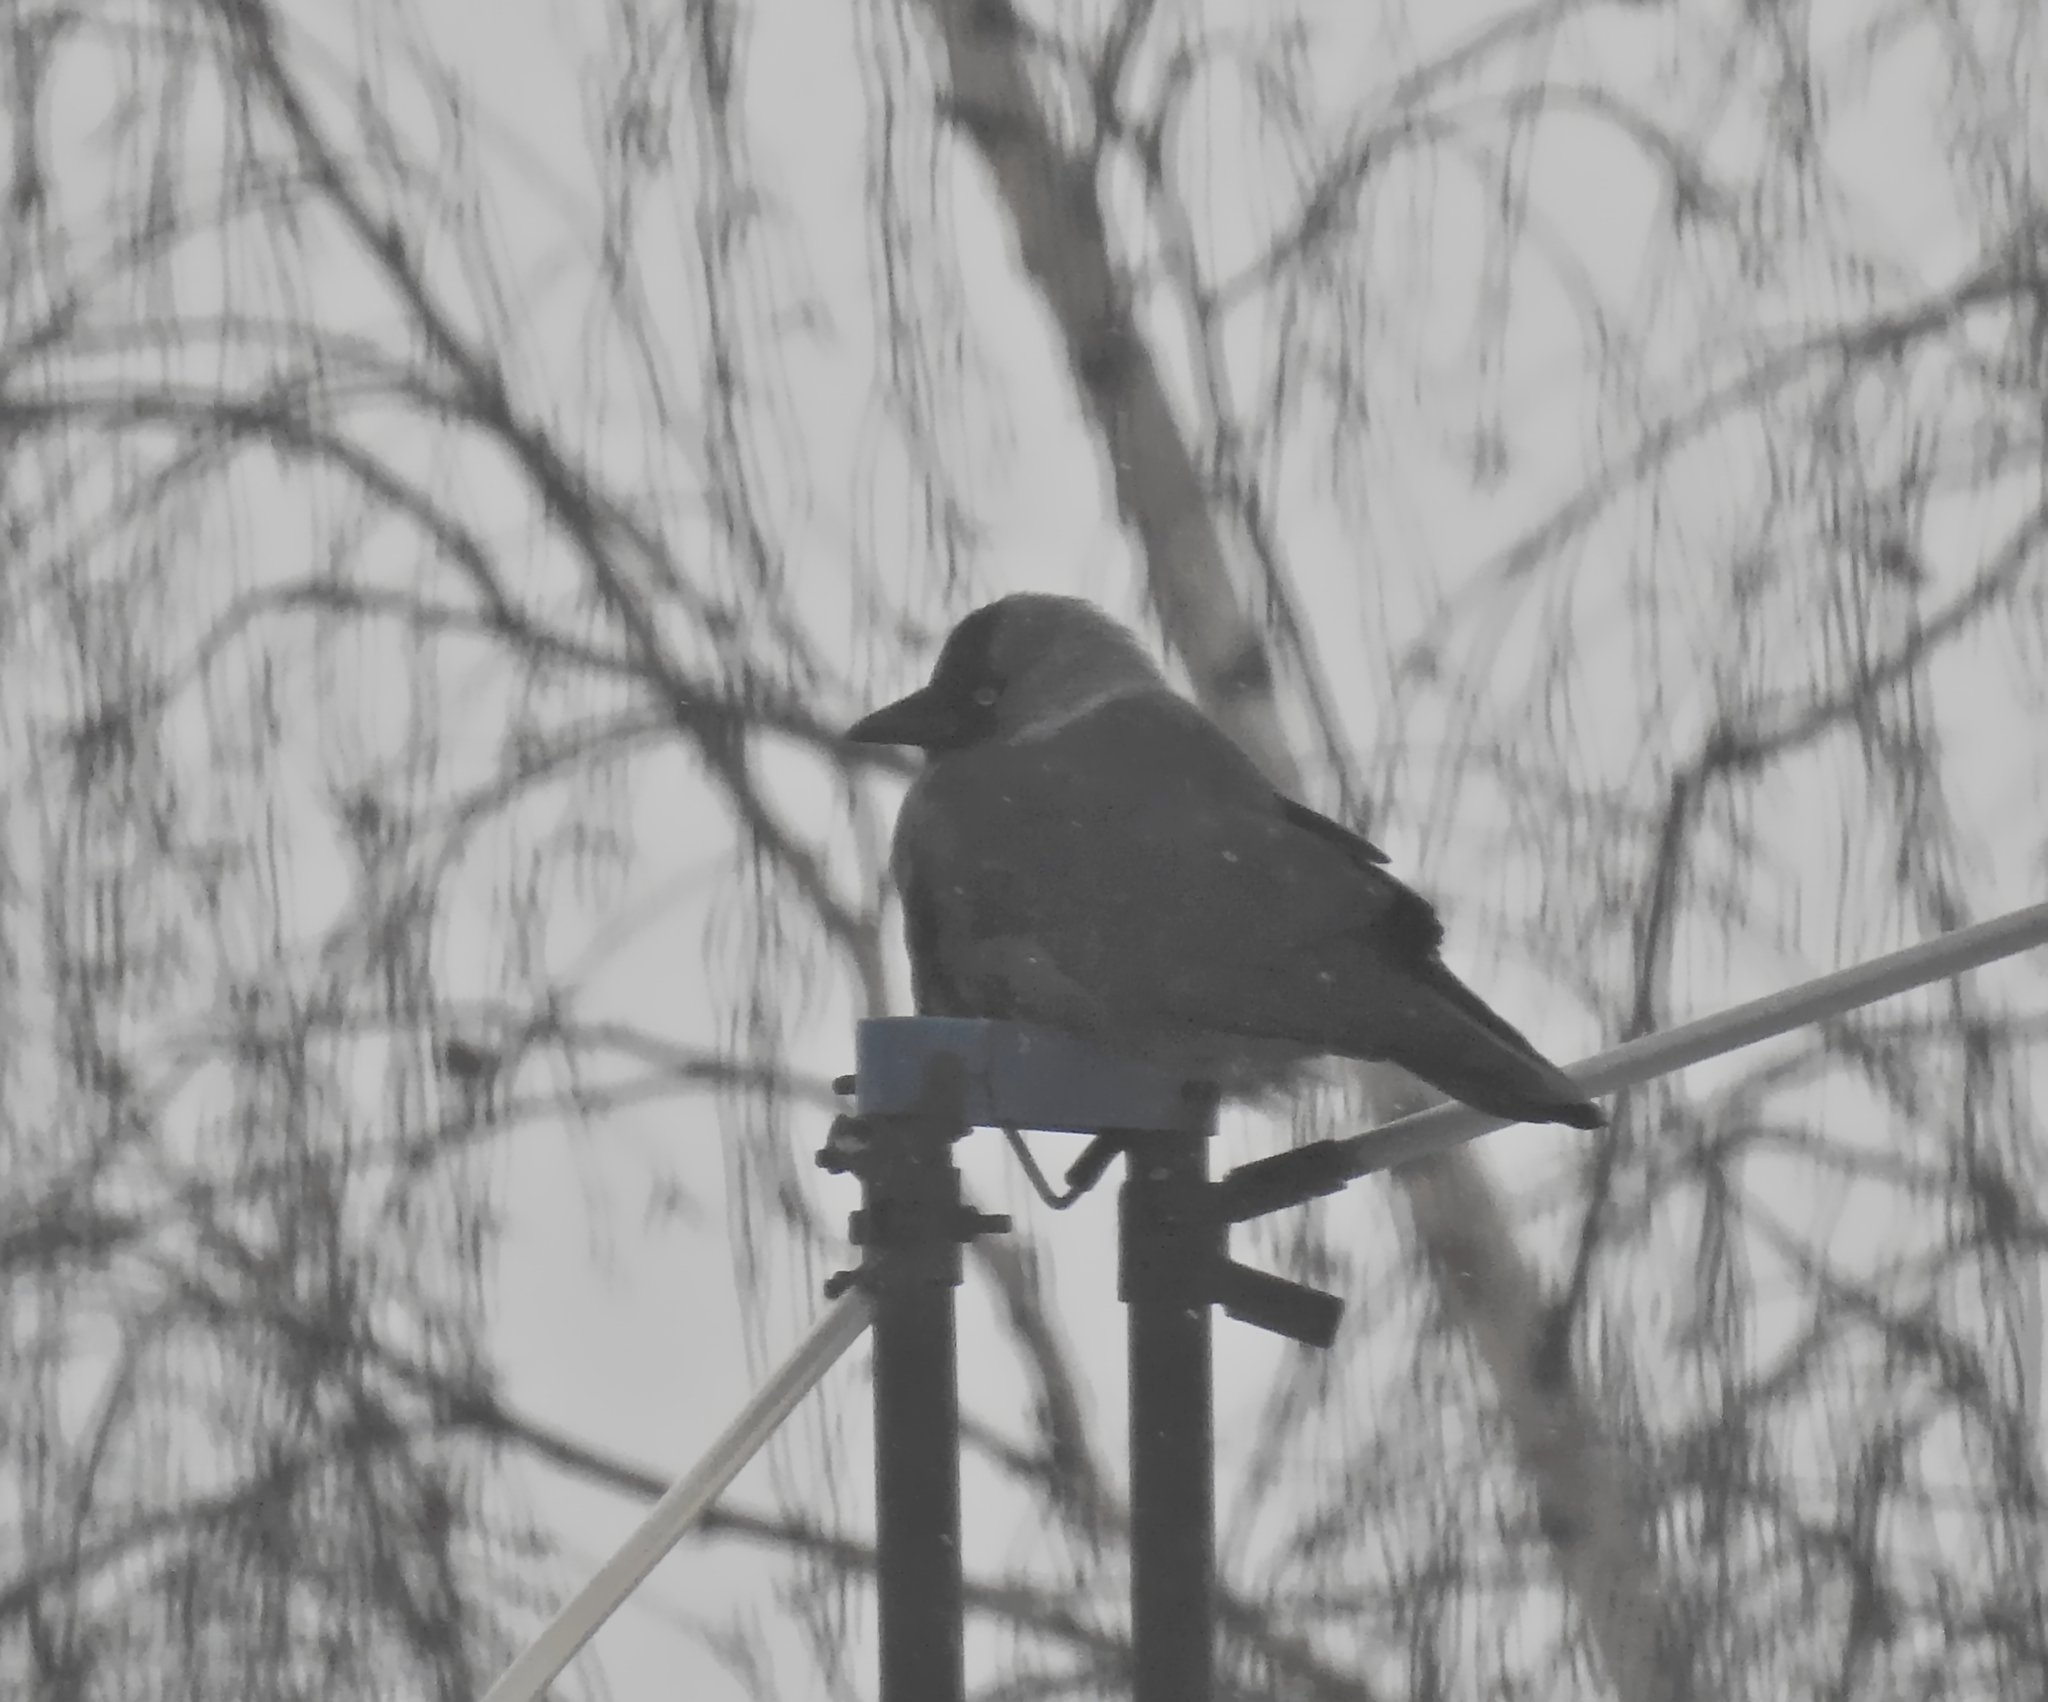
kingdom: Animalia
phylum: Chordata
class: Aves
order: Passeriformes
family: Corvidae
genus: Coloeus
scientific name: Coloeus monedula
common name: Western jackdaw
